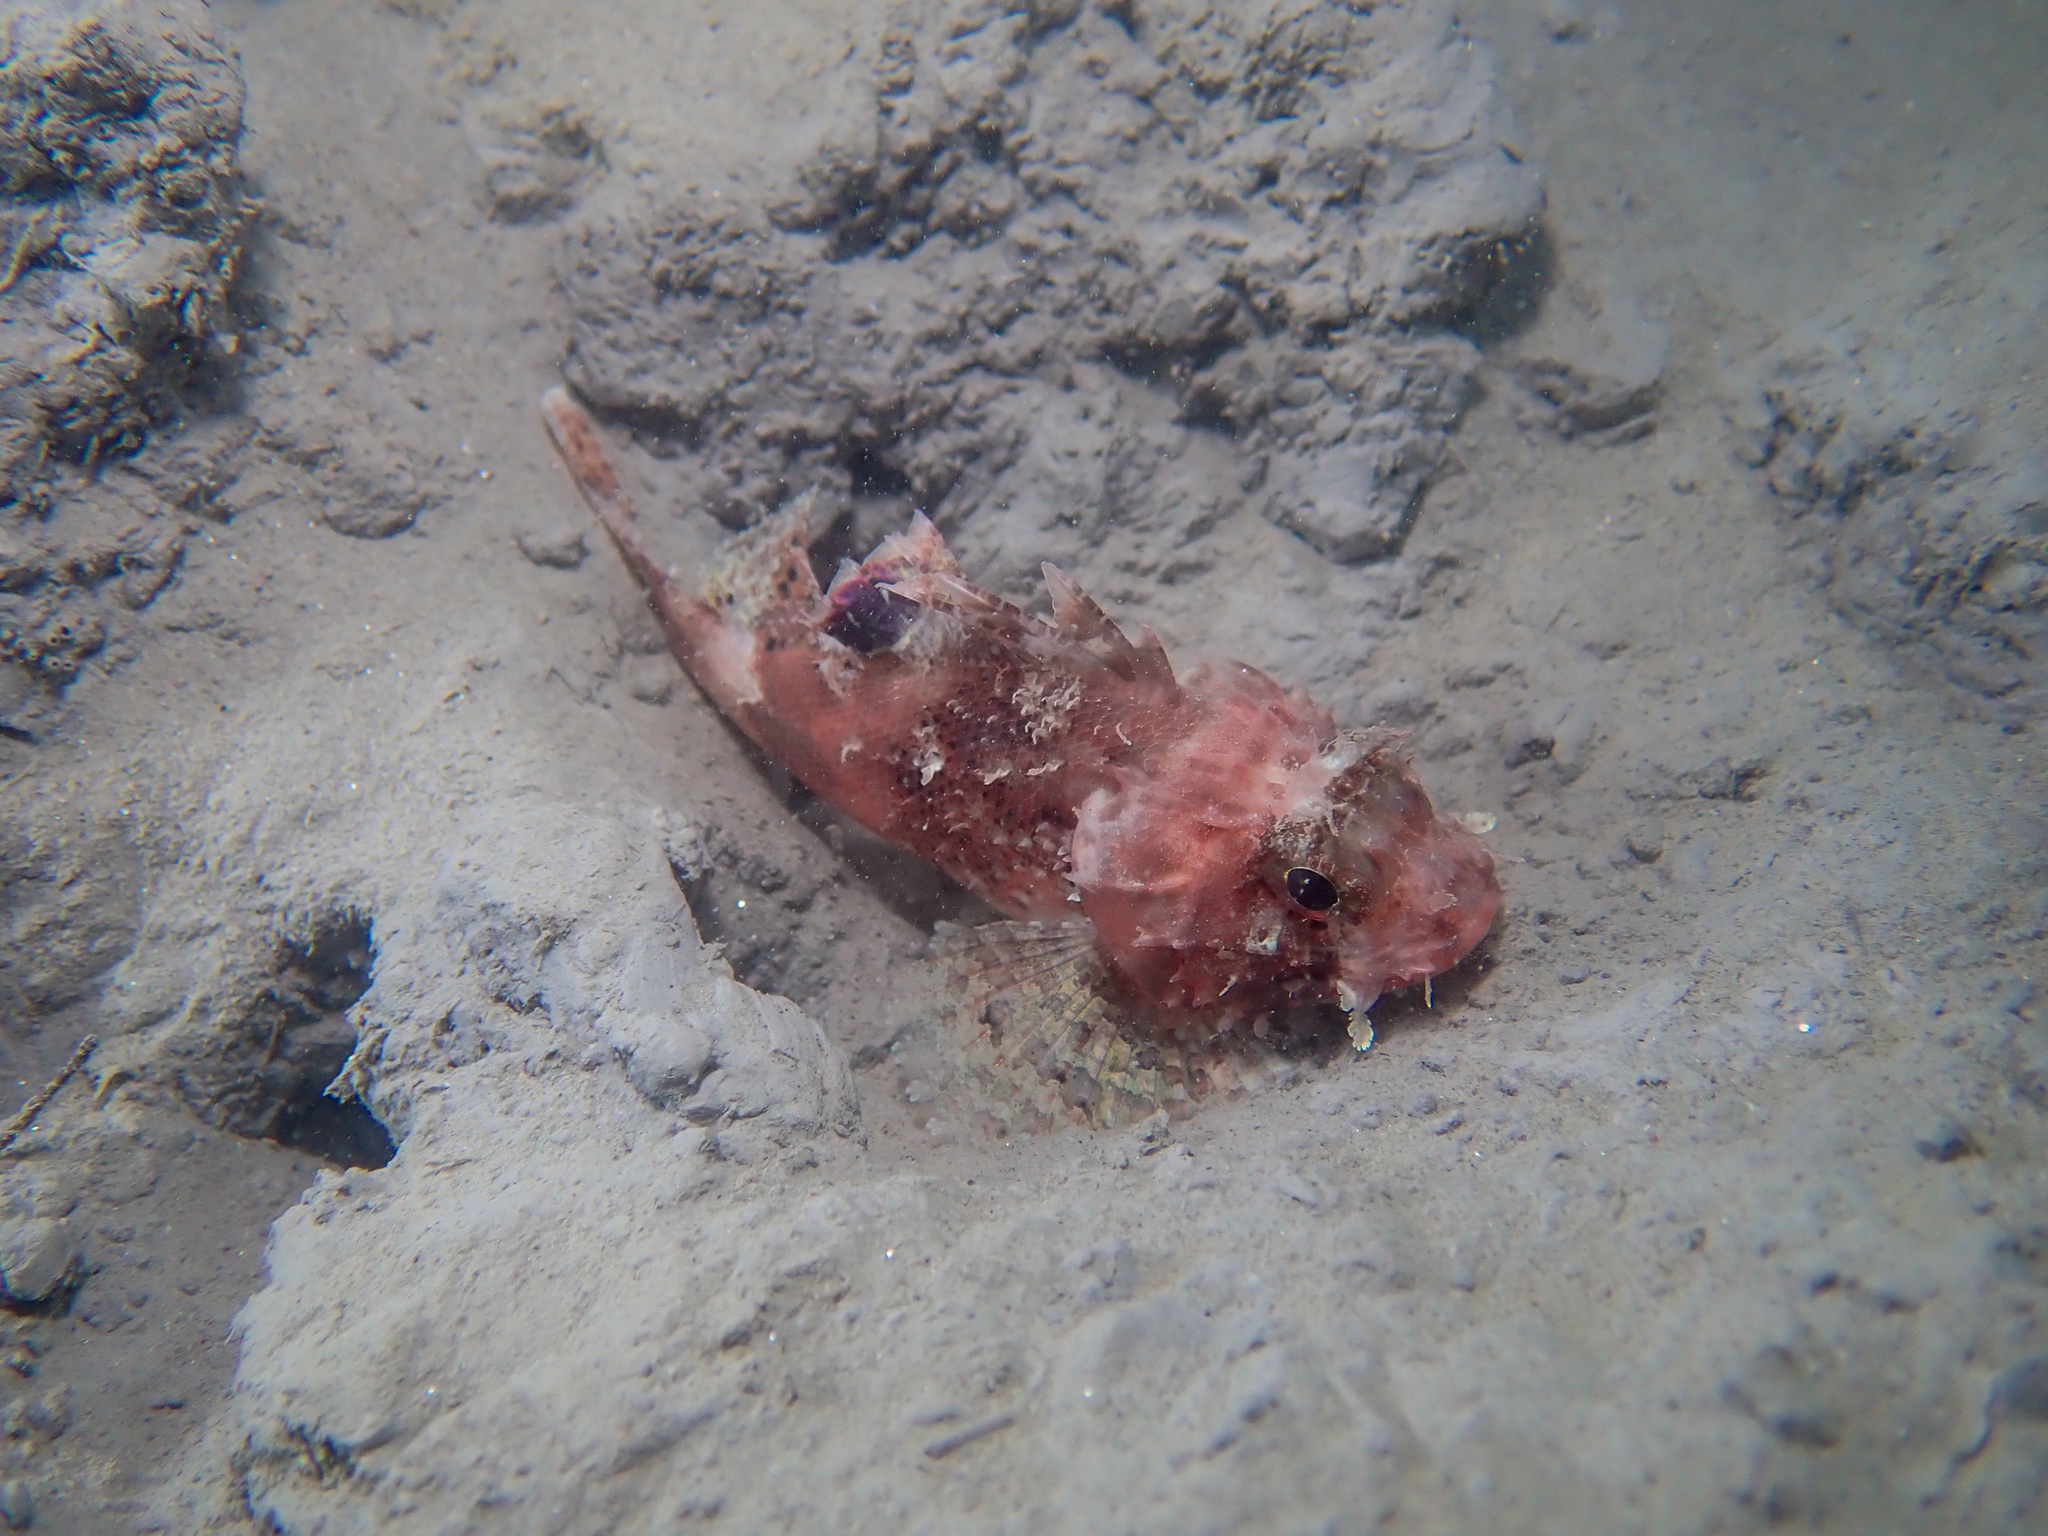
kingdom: Animalia
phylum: Chordata
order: Scorpaeniformes
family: Scorpaenidae
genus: Scorpaena
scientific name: Scorpaena notata
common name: Small red scorpionfish
